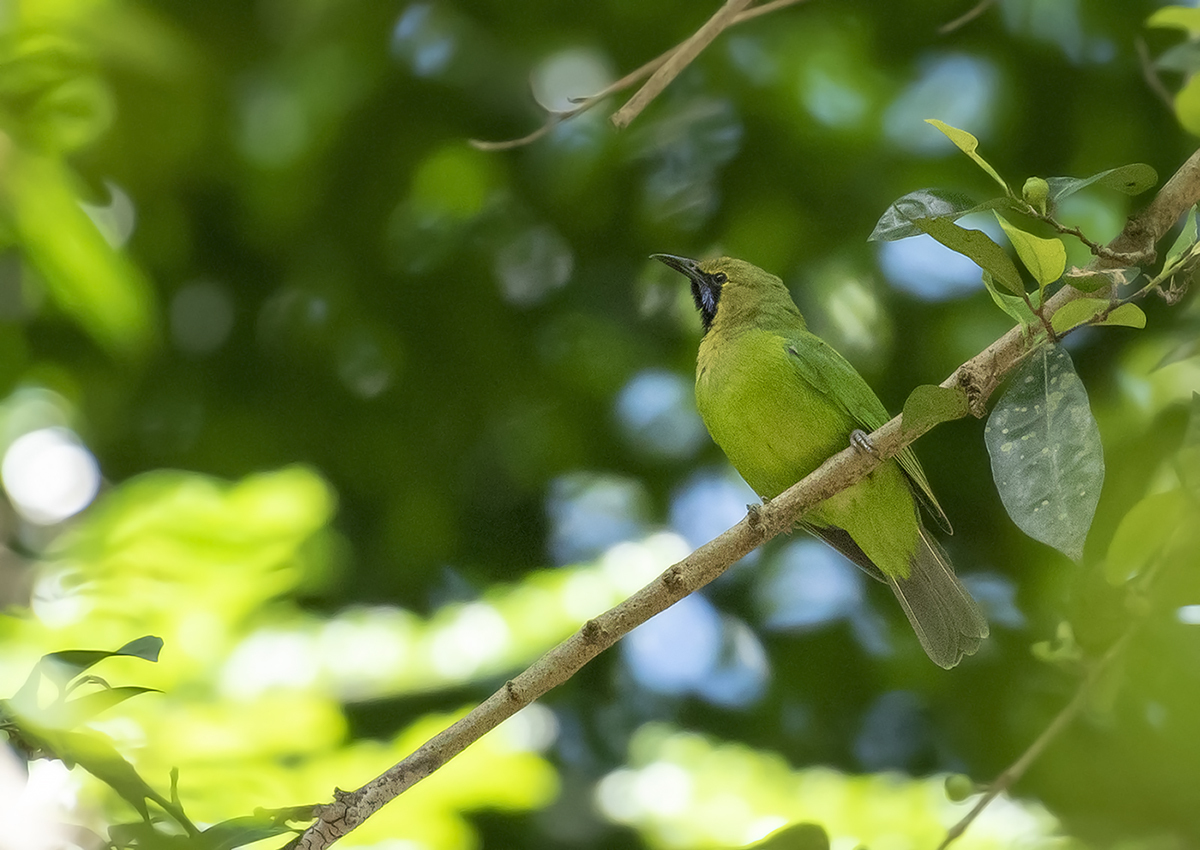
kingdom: Animalia
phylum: Chordata
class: Aves
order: Passeriformes
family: Chloropseidae
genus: Chloropsis
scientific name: Chloropsis jerdoni
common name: Jerdon's leafbird
